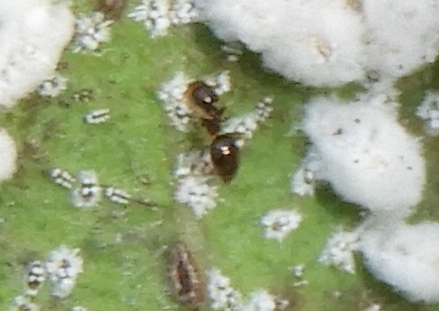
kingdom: Animalia
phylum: Arthropoda
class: Insecta
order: Hymenoptera
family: Formicidae
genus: Brachymyrmex
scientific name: Brachymyrmex
